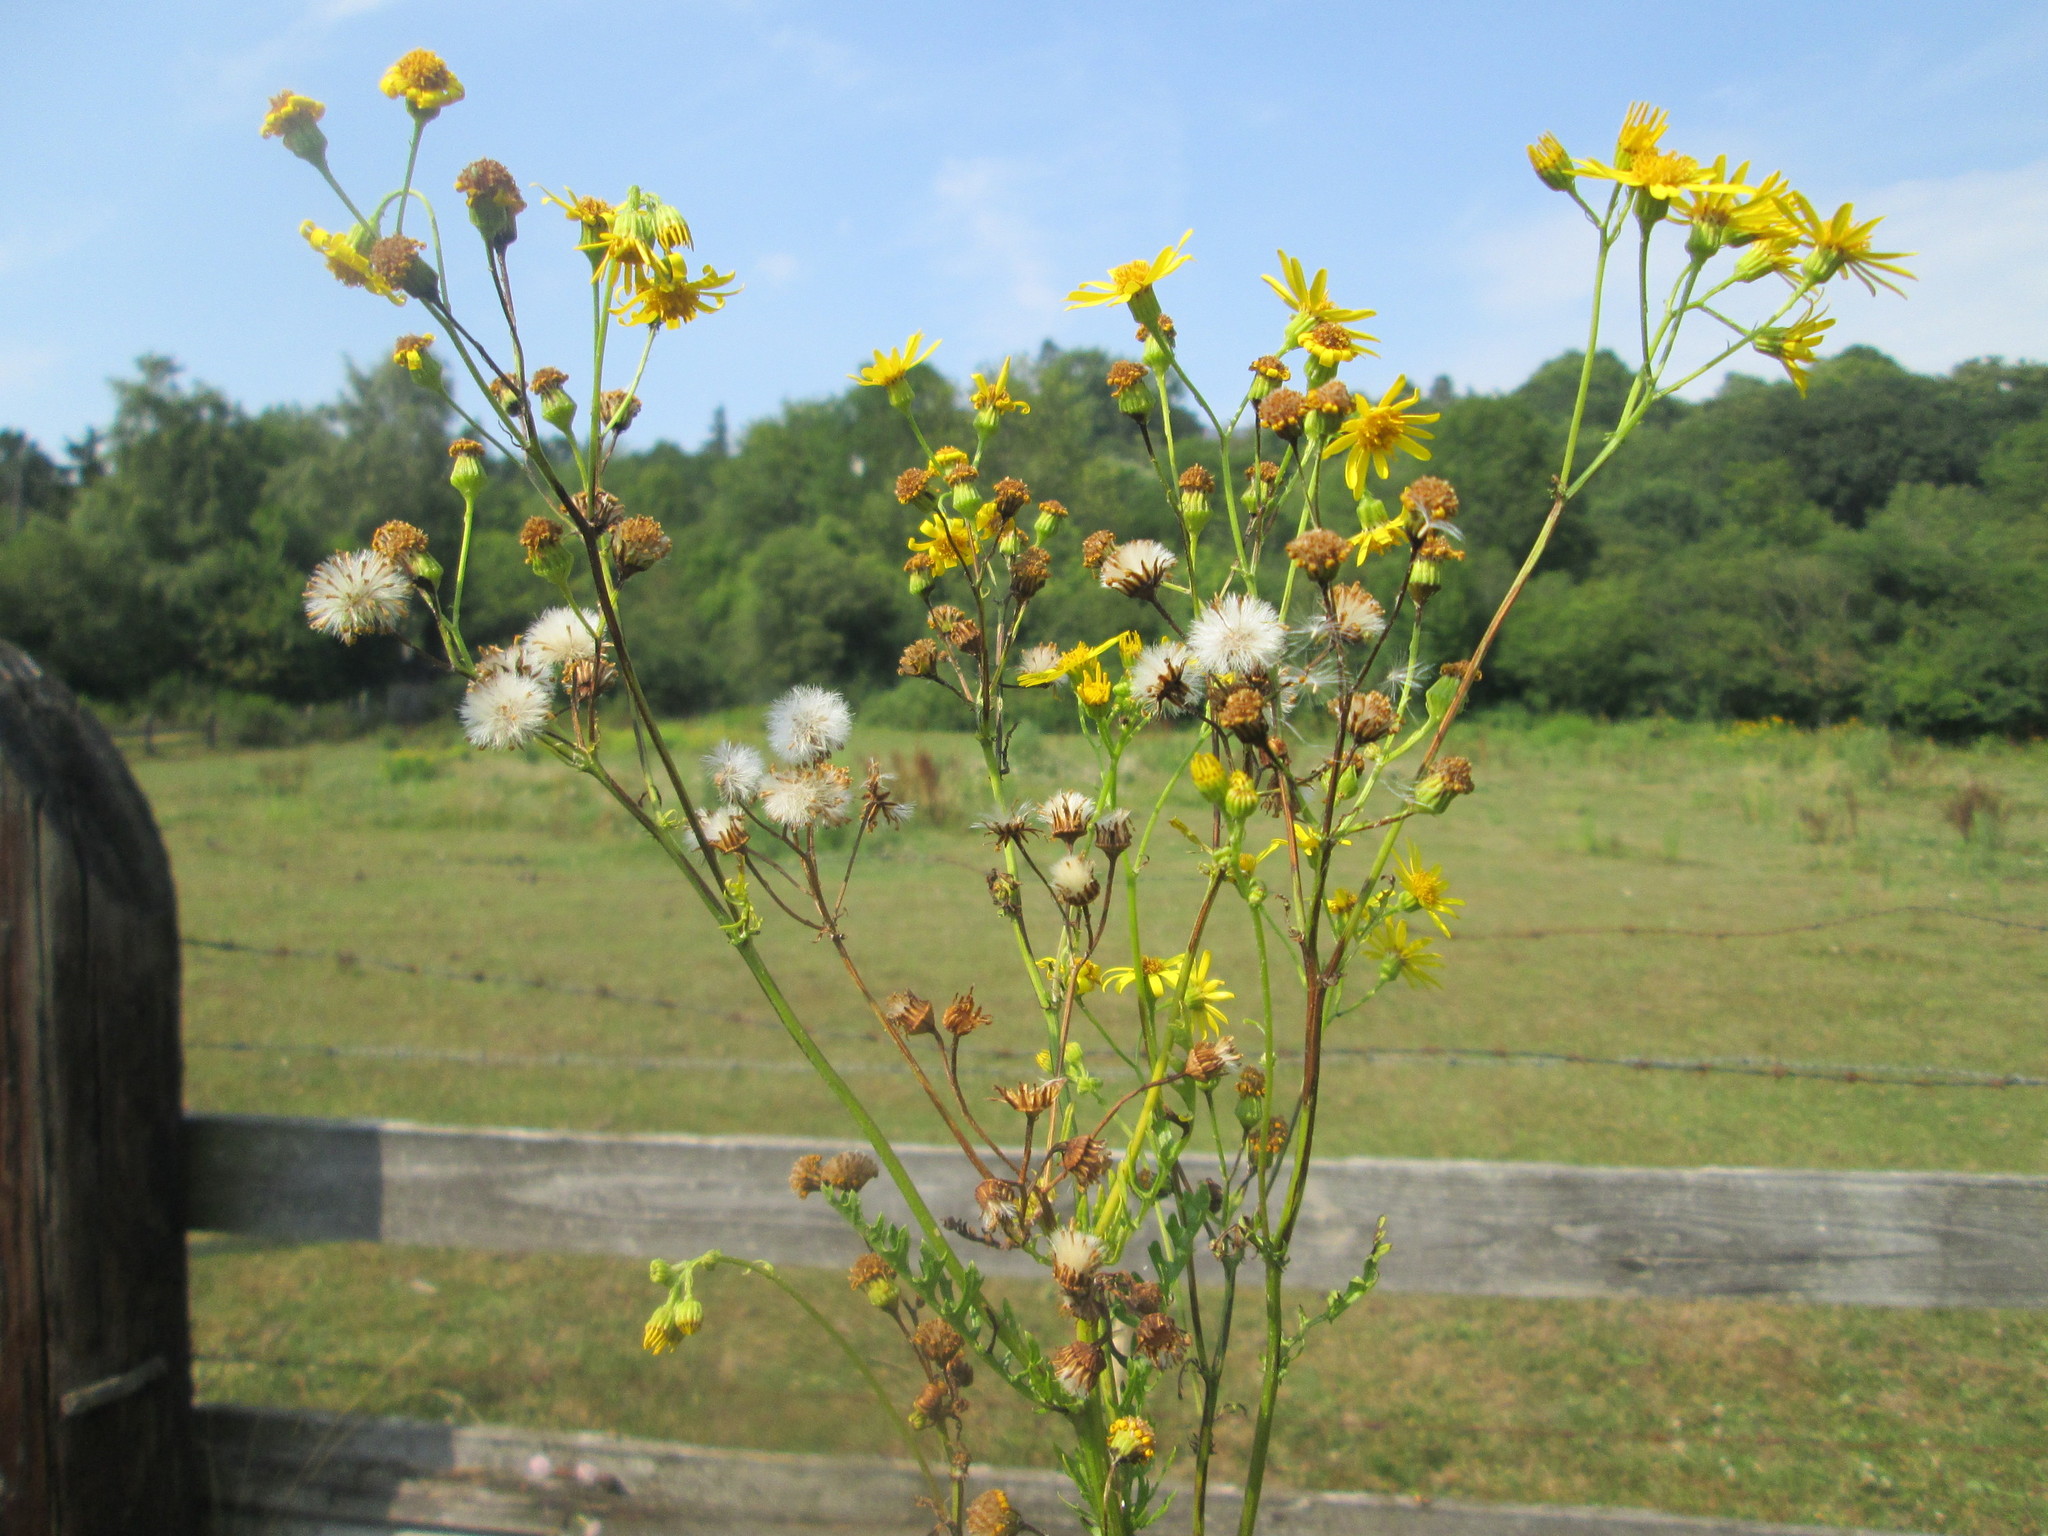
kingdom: Plantae
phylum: Tracheophyta
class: Magnoliopsida
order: Asterales
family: Asteraceae
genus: Jacobaea
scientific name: Jacobaea vulgaris
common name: Stinking willie
